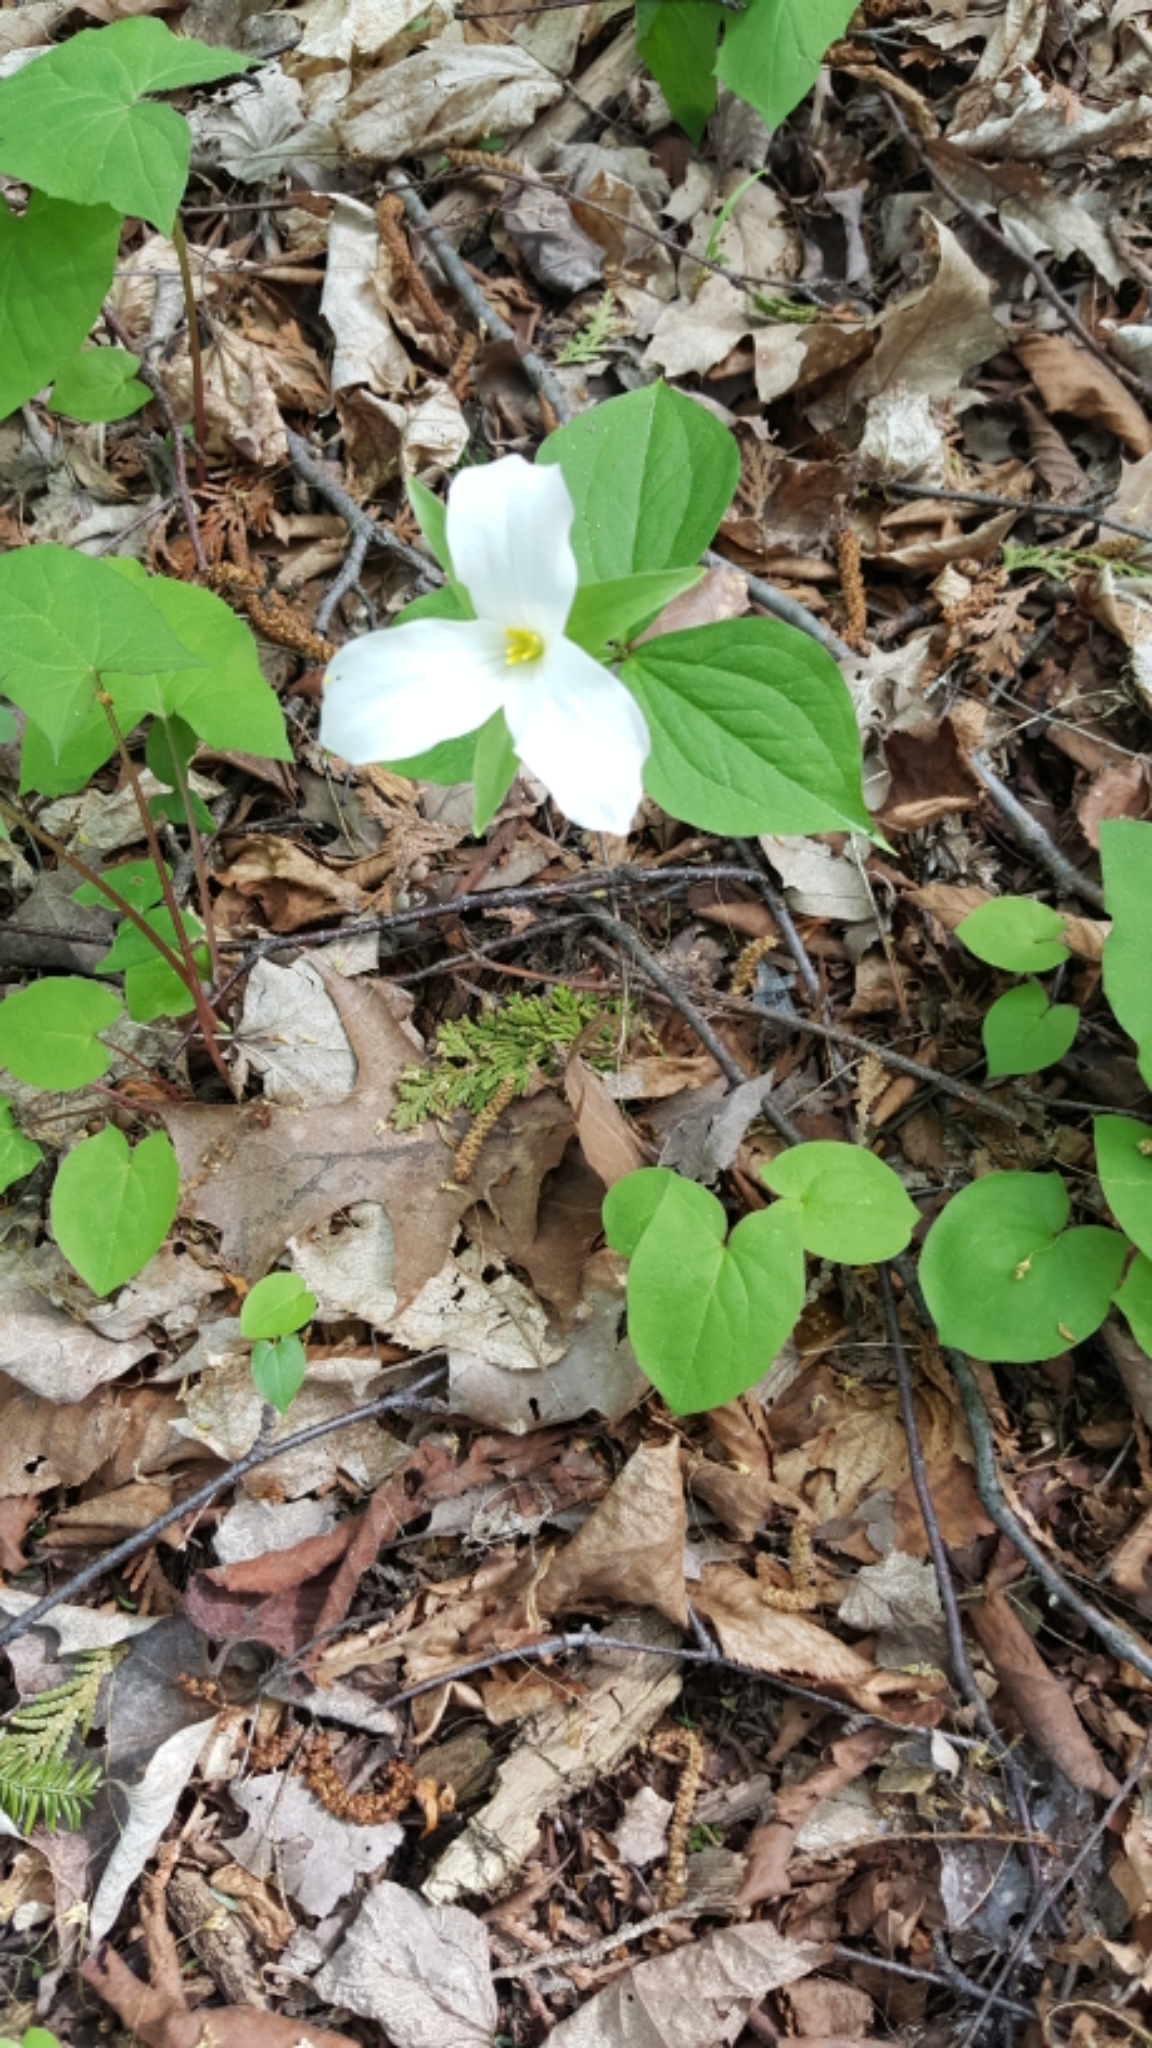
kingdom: Plantae
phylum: Tracheophyta
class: Liliopsida
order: Liliales
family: Melanthiaceae
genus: Trillium
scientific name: Trillium grandiflorum
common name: Great white trillium
